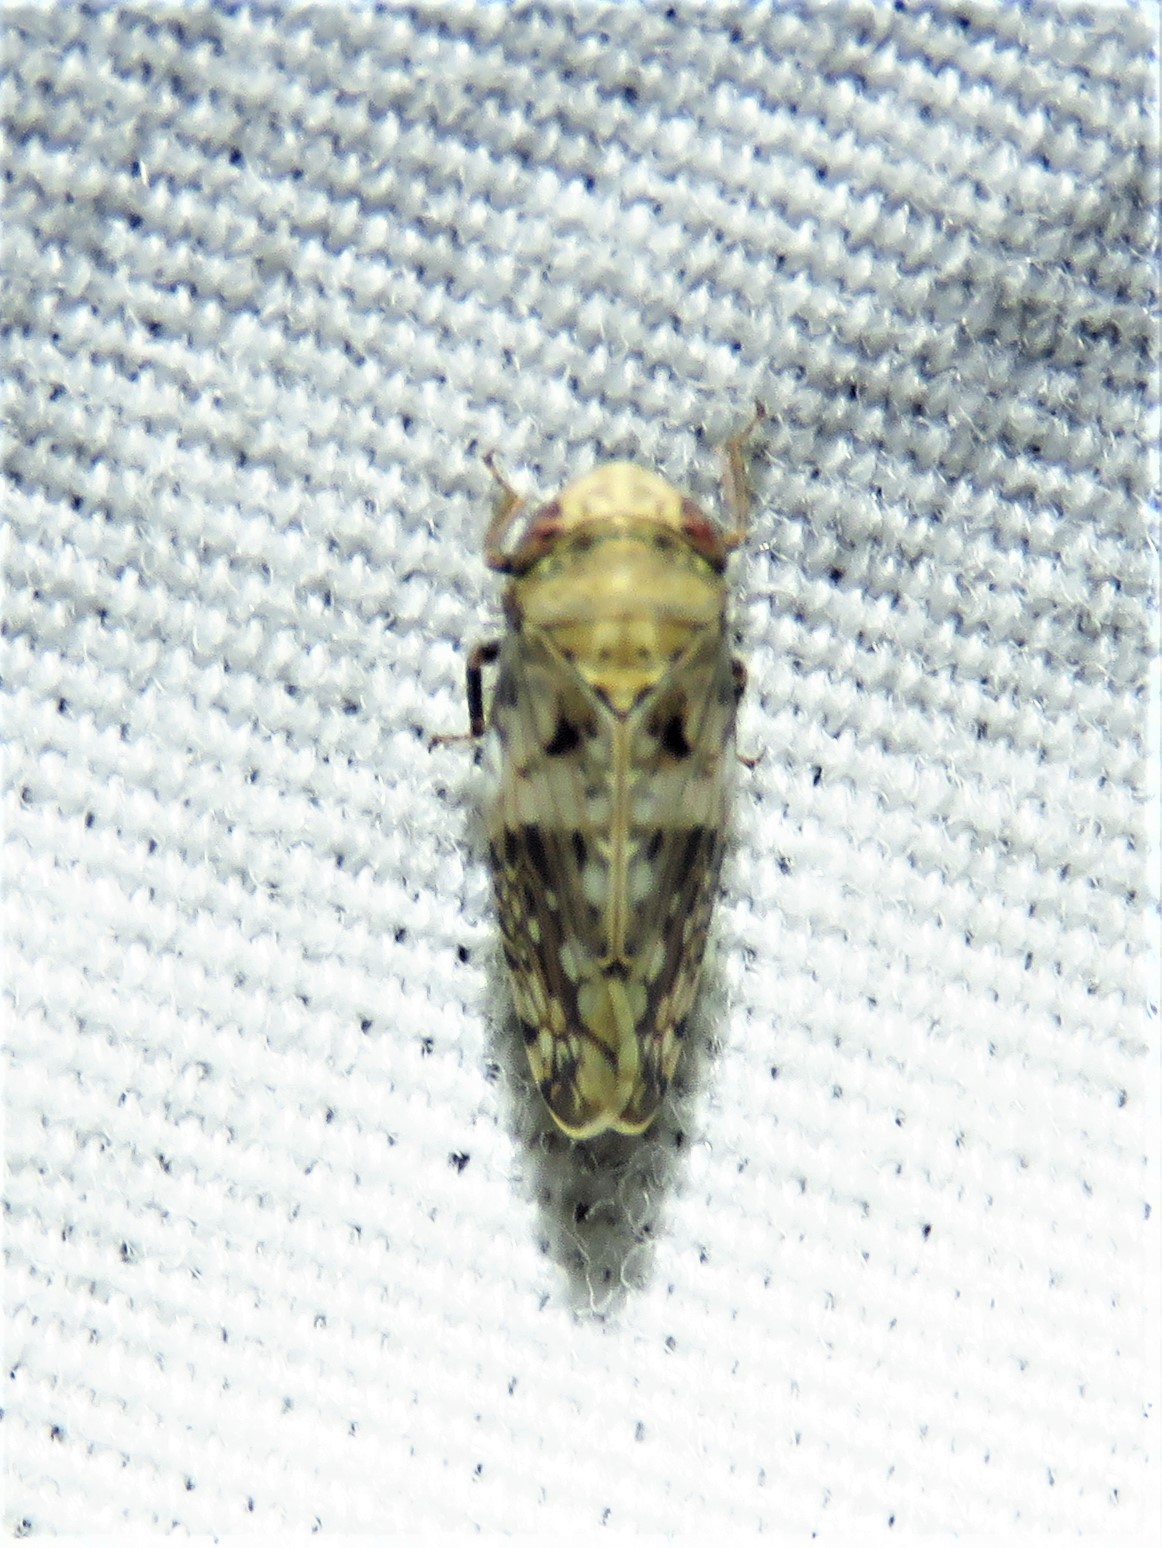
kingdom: Animalia
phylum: Arthropoda
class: Insecta
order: Hemiptera
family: Cicadellidae
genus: Menosoma
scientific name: Menosoma cinctum
